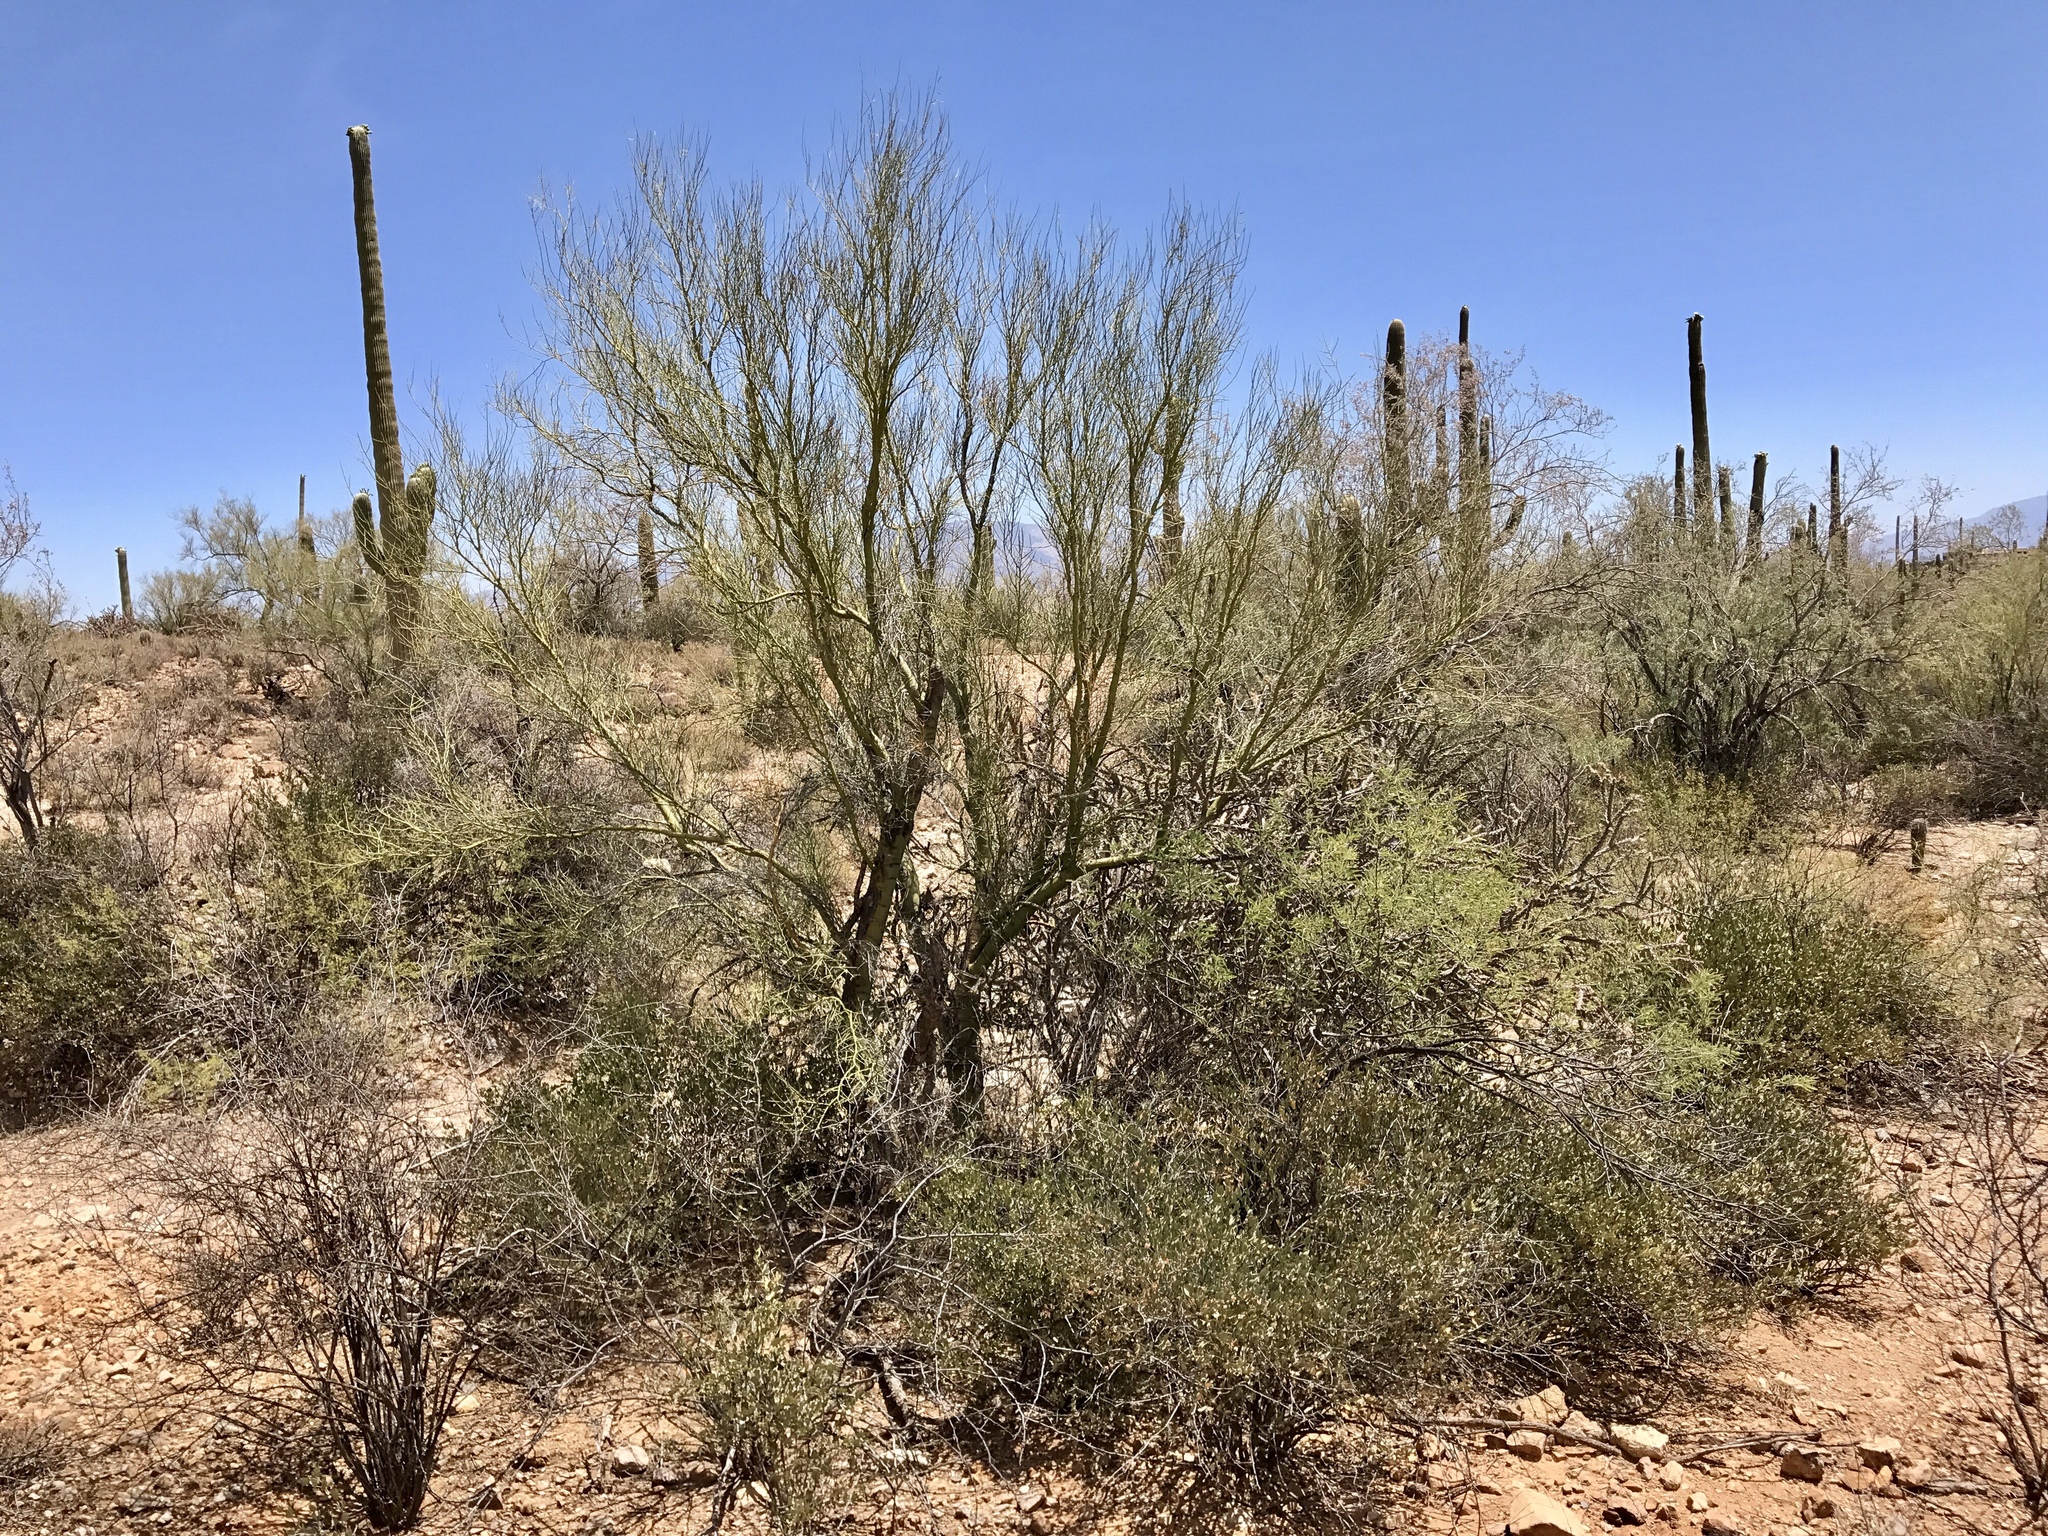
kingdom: Plantae
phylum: Tracheophyta
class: Magnoliopsida
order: Fabales
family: Fabaceae
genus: Parkinsonia
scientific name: Parkinsonia microphylla
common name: Yellow paloverde
